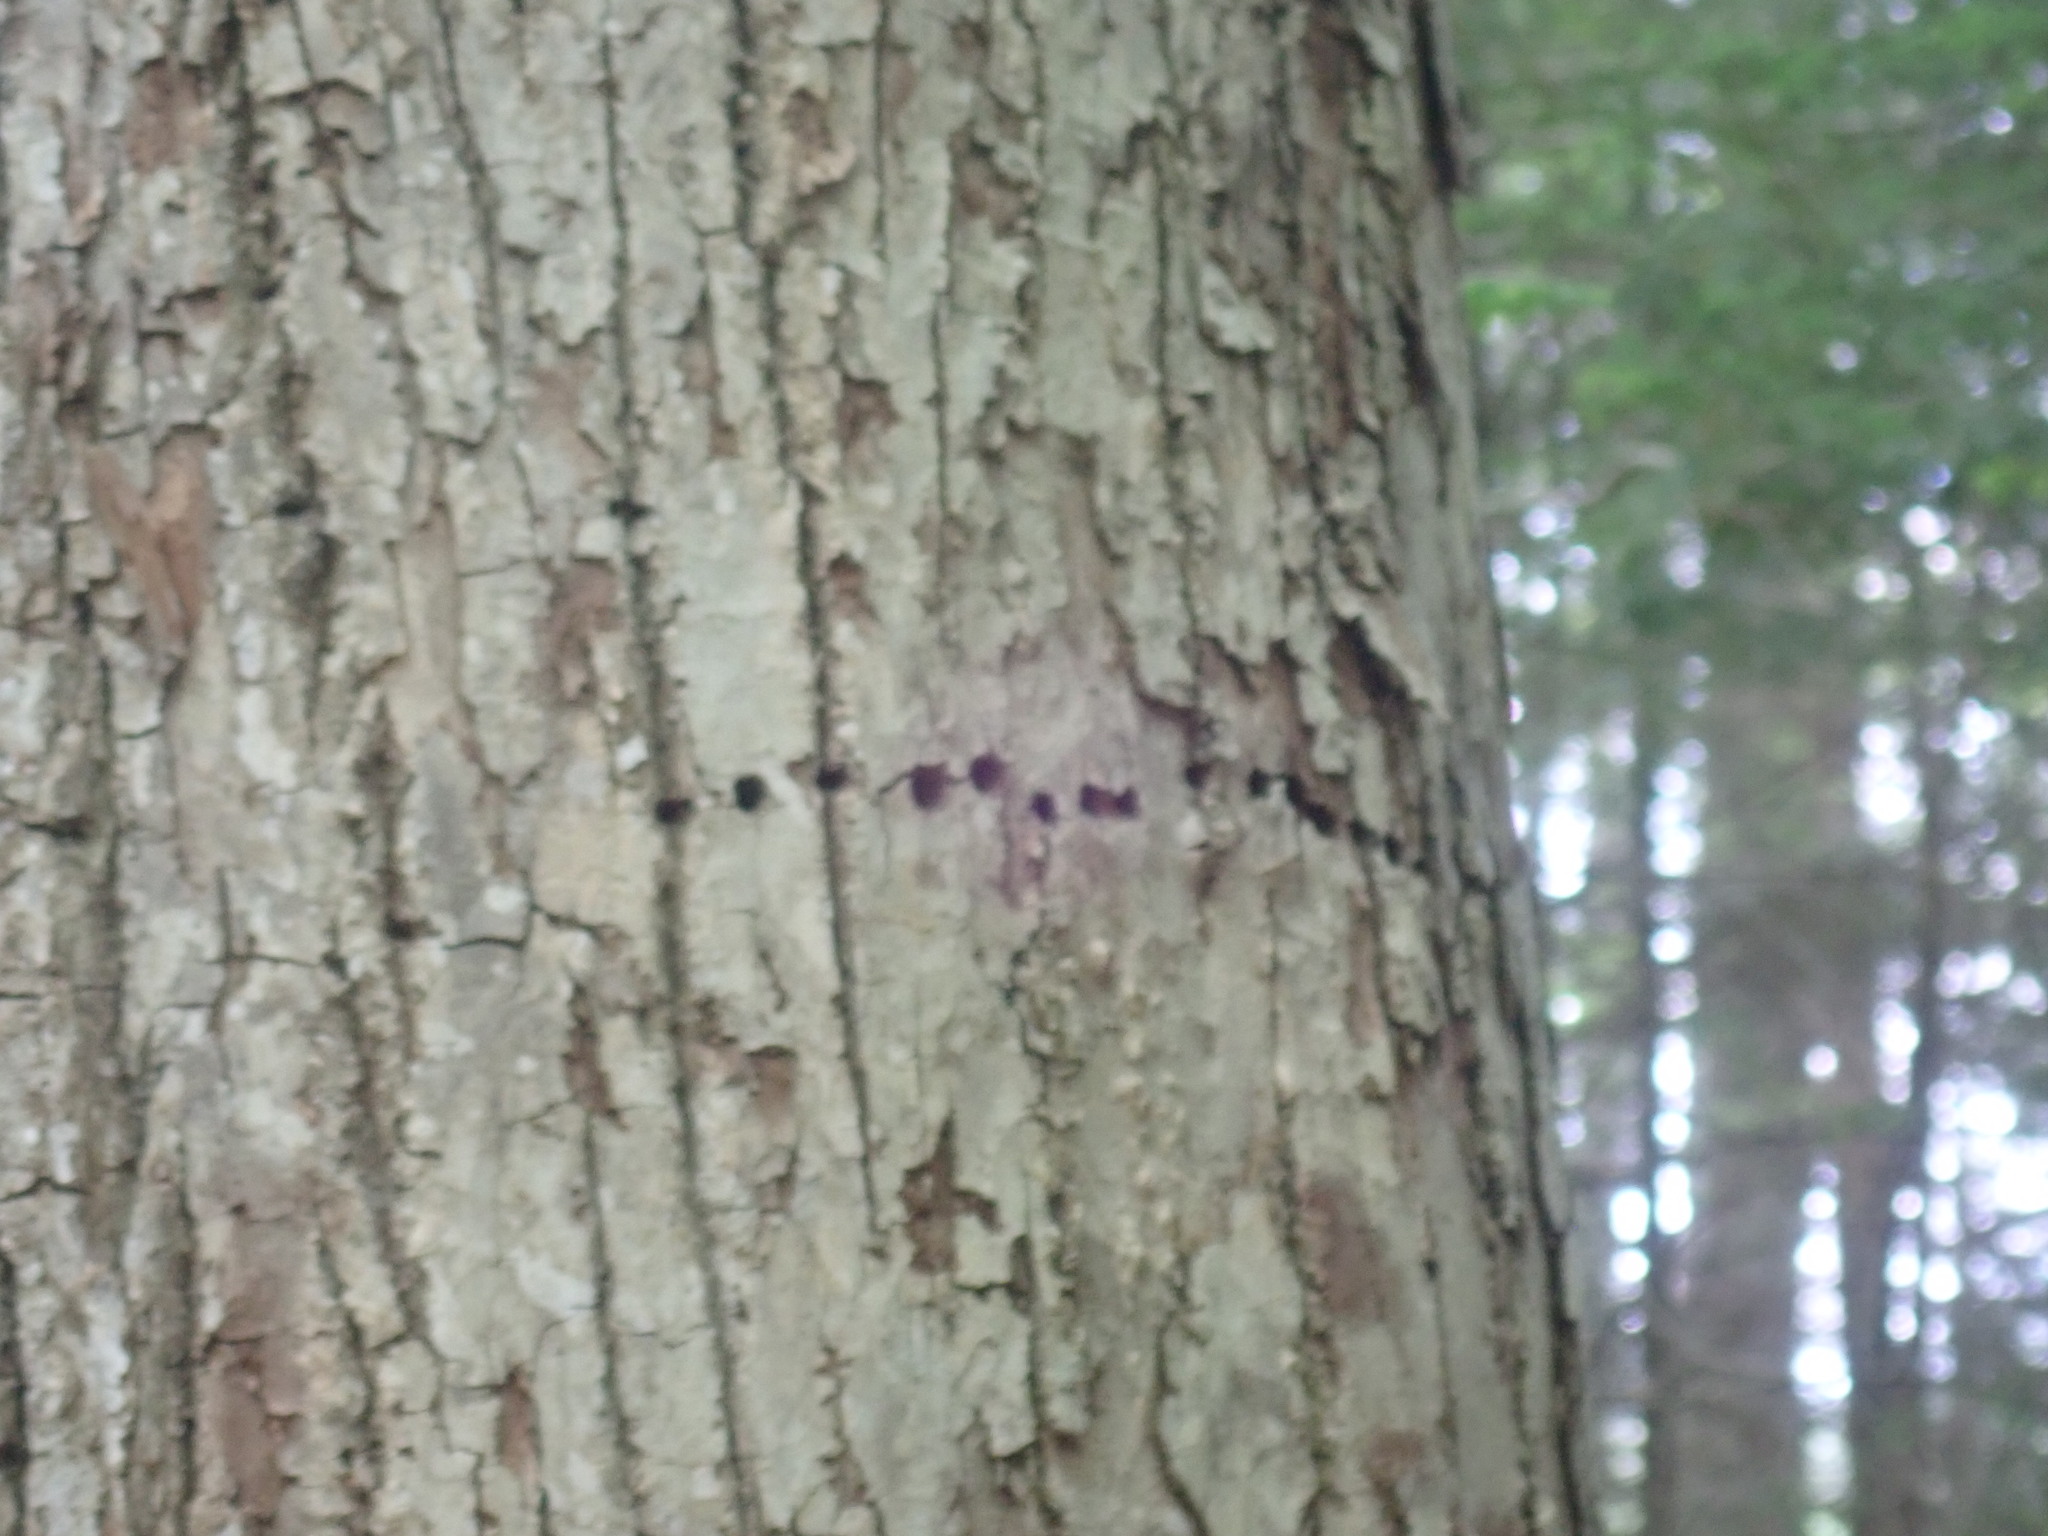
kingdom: Animalia
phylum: Chordata
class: Aves
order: Piciformes
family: Picidae
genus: Sphyrapicus
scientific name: Sphyrapicus varius
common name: Yellow-bellied sapsucker
